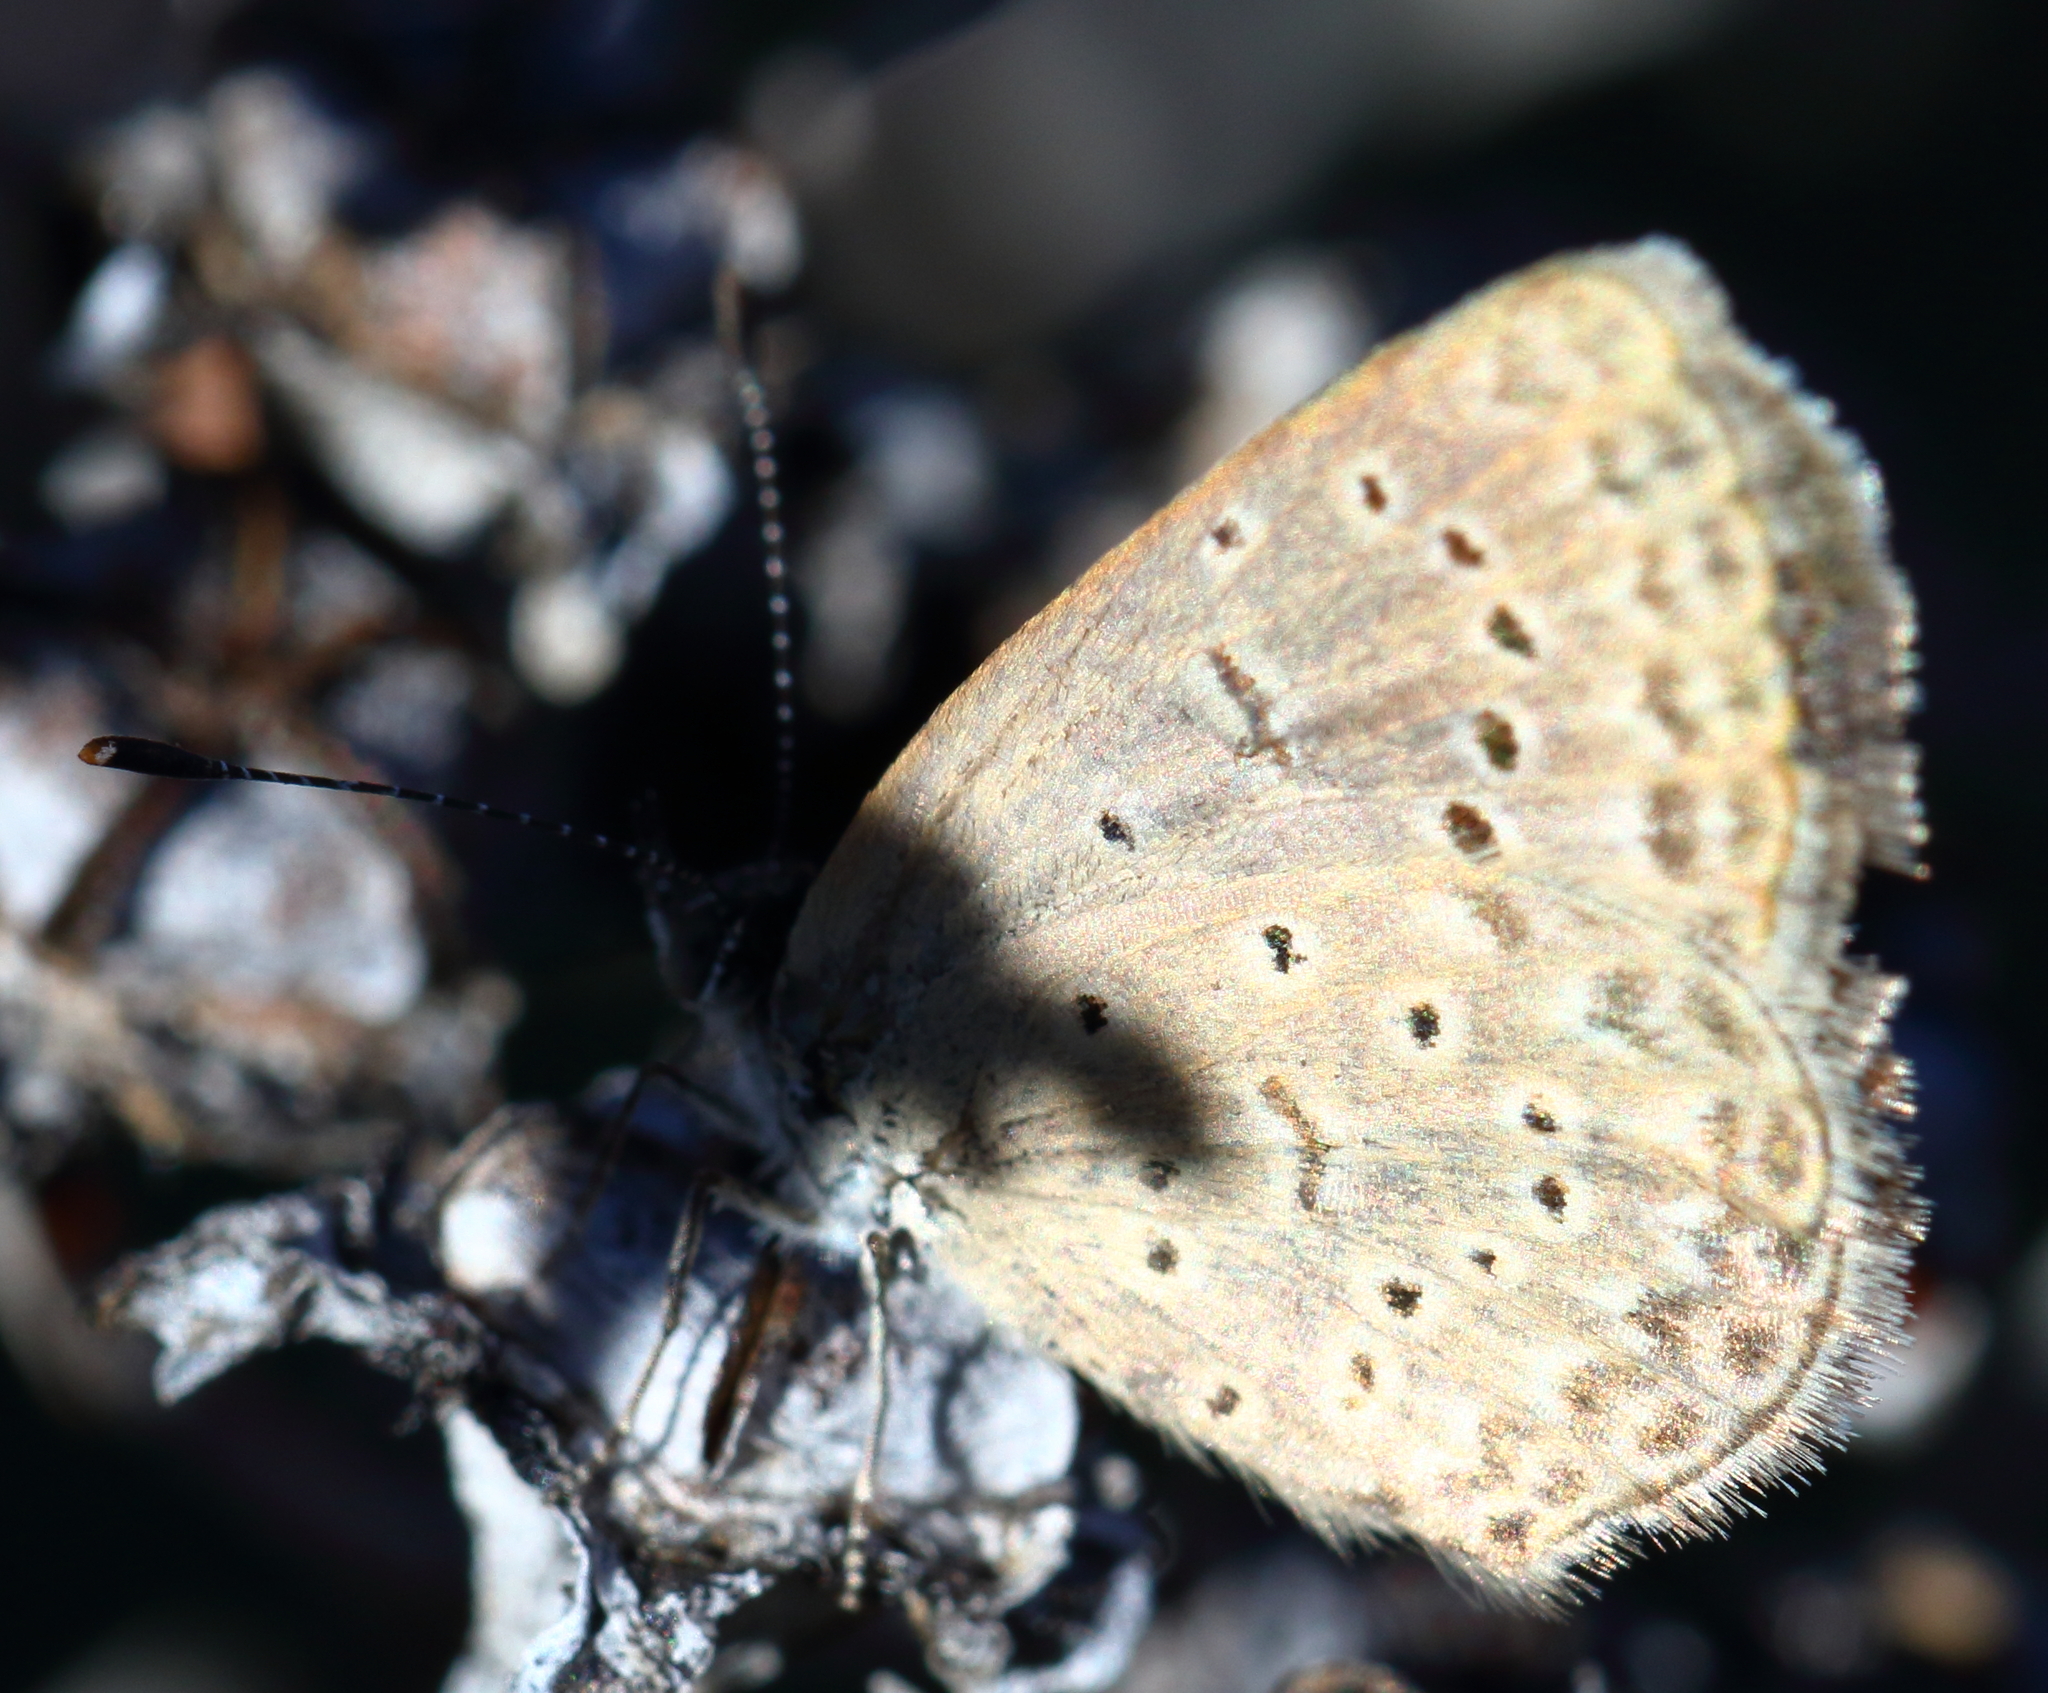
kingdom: Animalia
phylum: Arthropoda
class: Insecta
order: Lepidoptera
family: Lycaenidae
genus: Zizeeria
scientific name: Zizeeria knysna
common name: African grass blue
